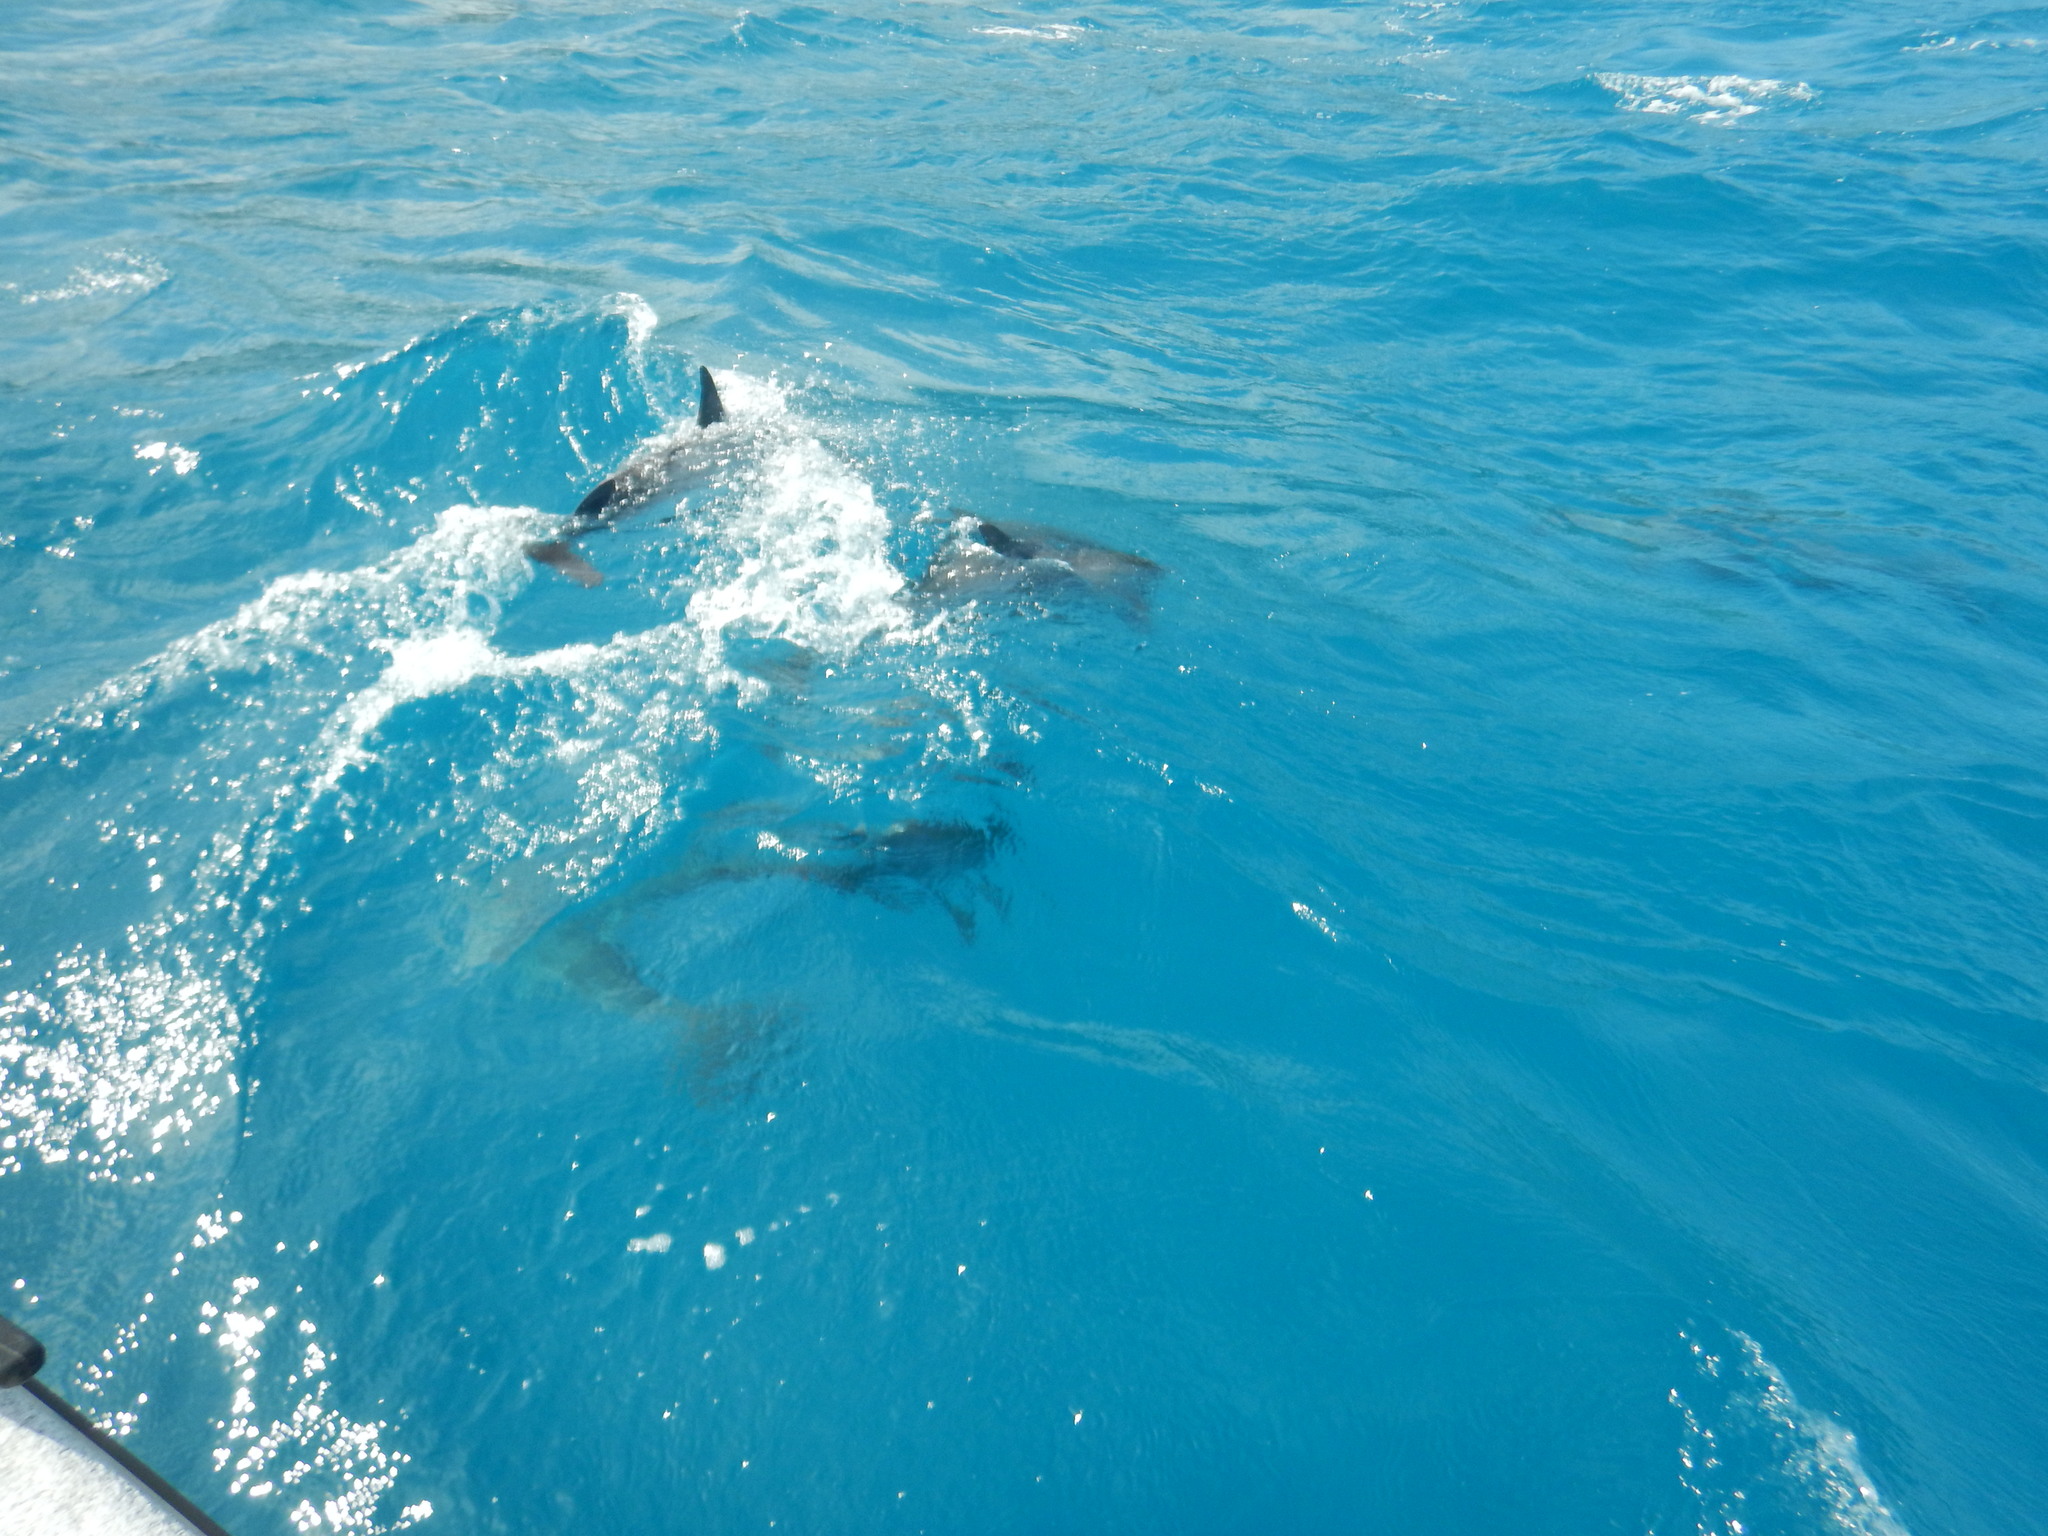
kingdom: Animalia
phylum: Chordata
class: Mammalia
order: Cetacea
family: Delphinidae
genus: Stenella
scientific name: Stenella longirostris
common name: Spinner dolphin
